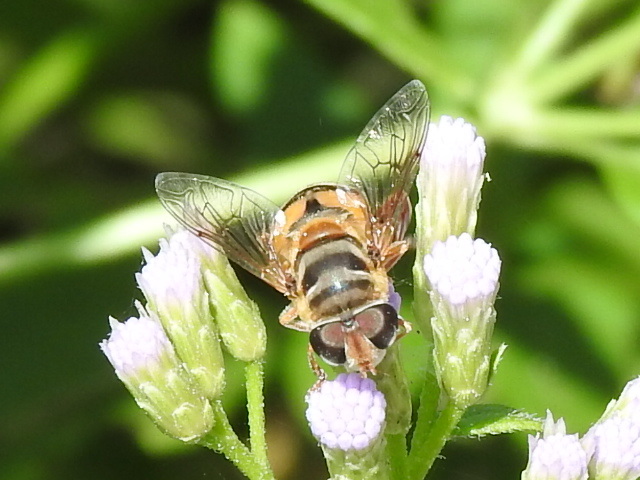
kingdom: Animalia
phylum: Arthropoda
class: Insecta
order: Diptera
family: Syrphidae
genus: Palpada
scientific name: Palpada vinetorum
